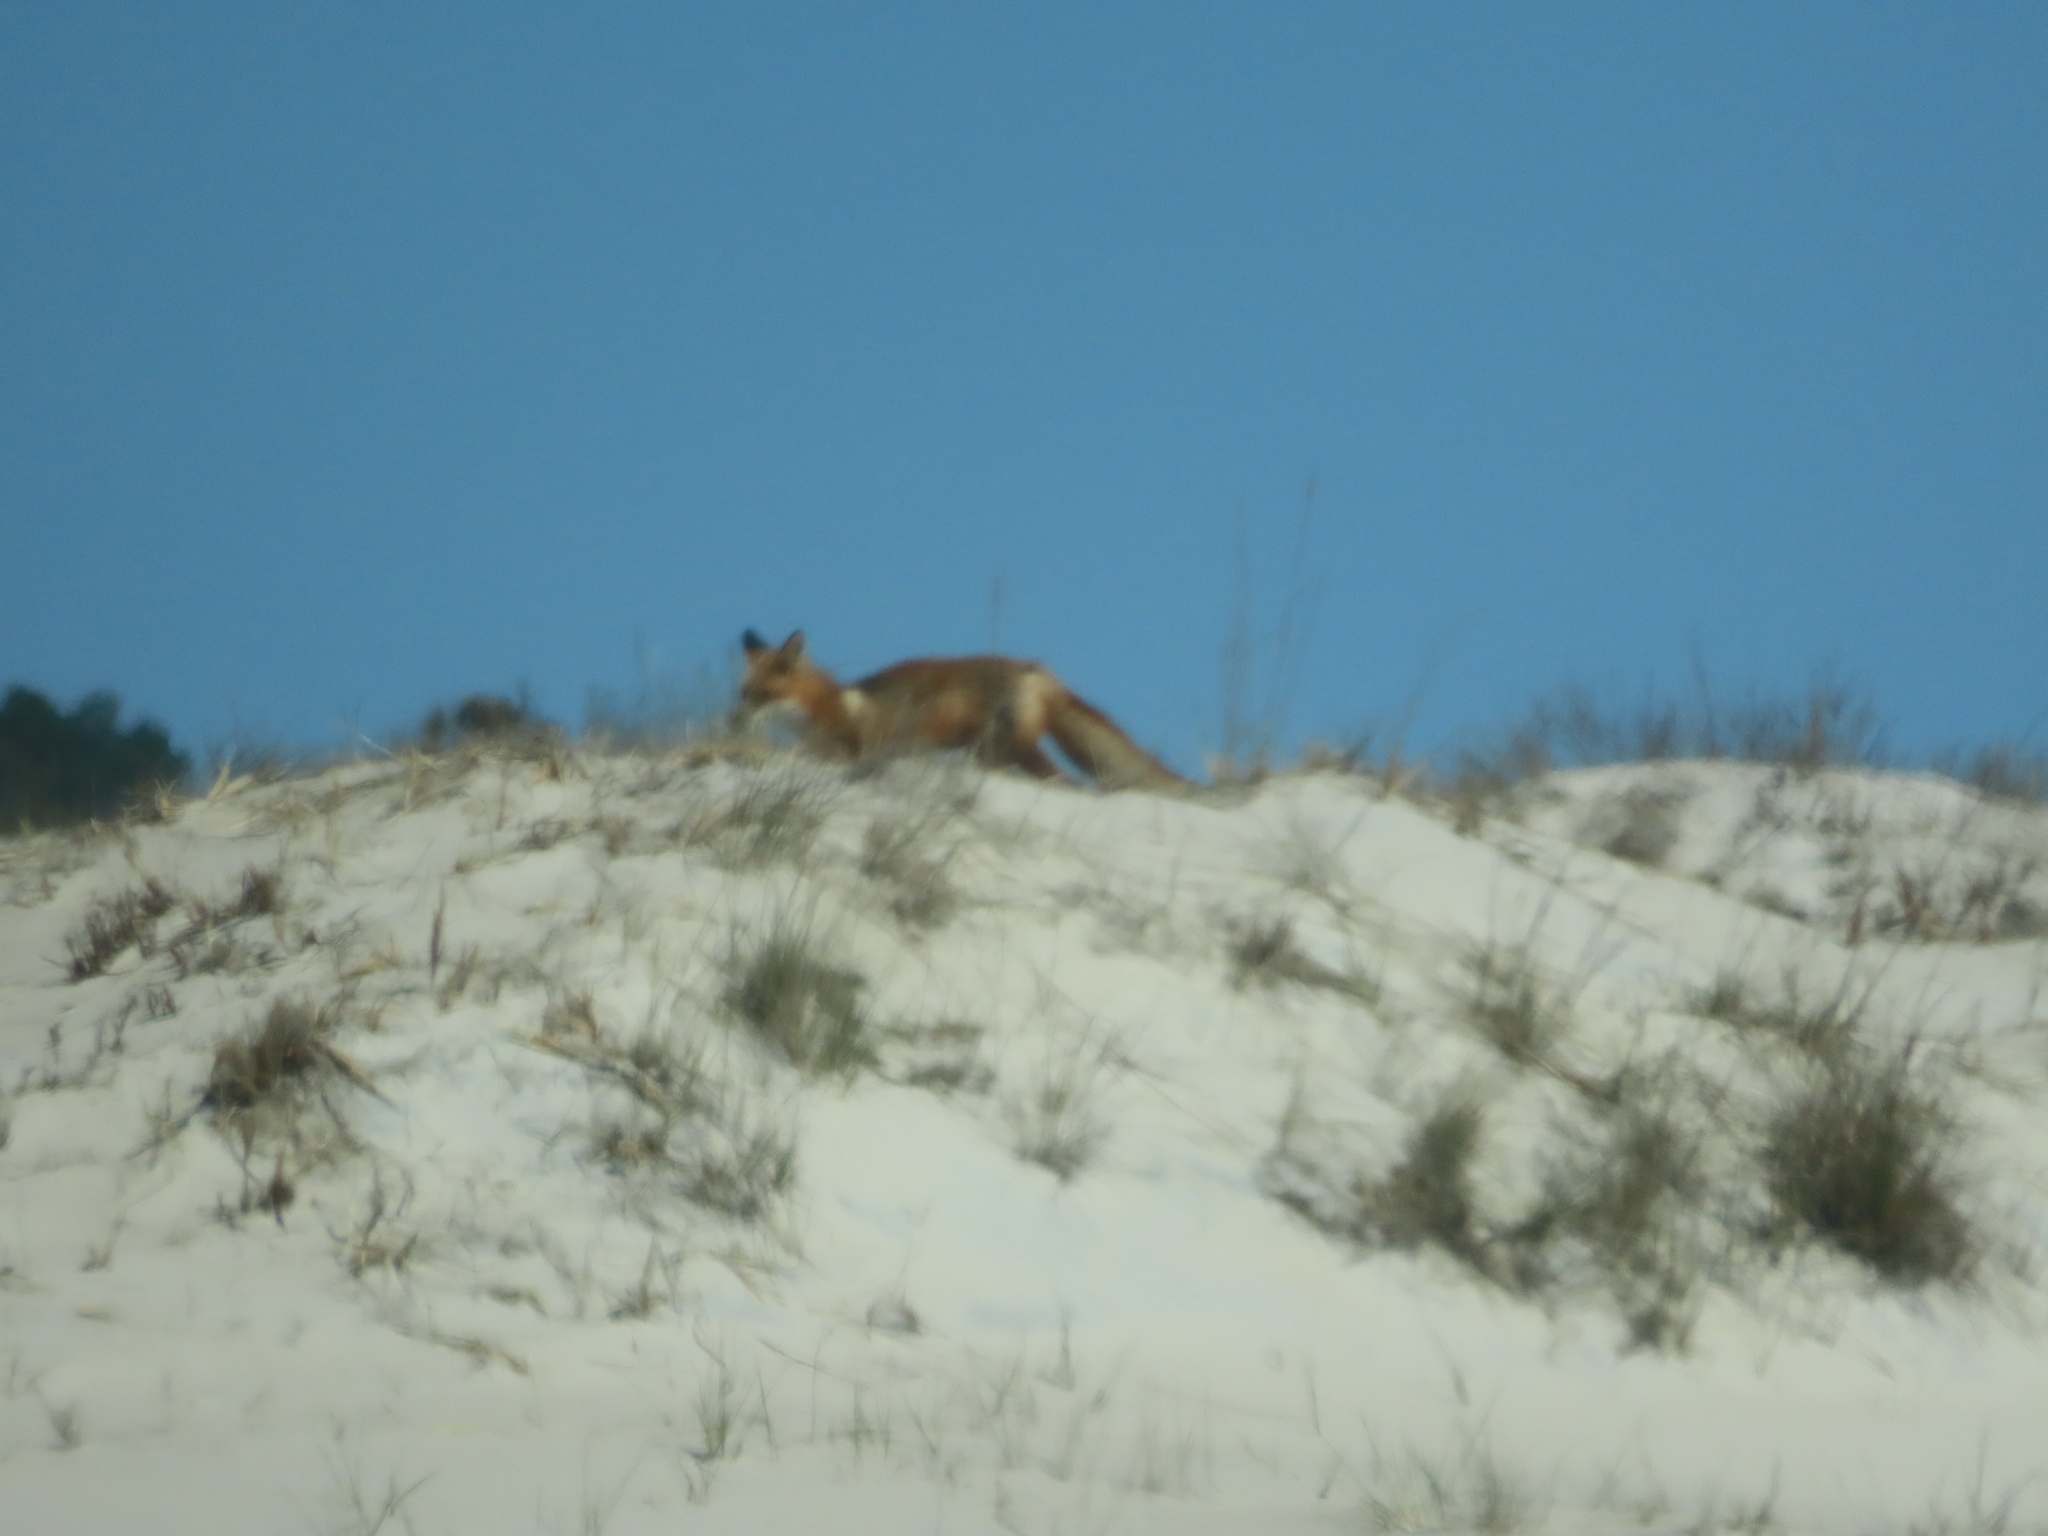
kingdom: Animalia
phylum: Chordata
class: Mammalia
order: Carnivora
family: Canidae
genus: Vulpes
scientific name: Vulpes vulpes
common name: Red fox
